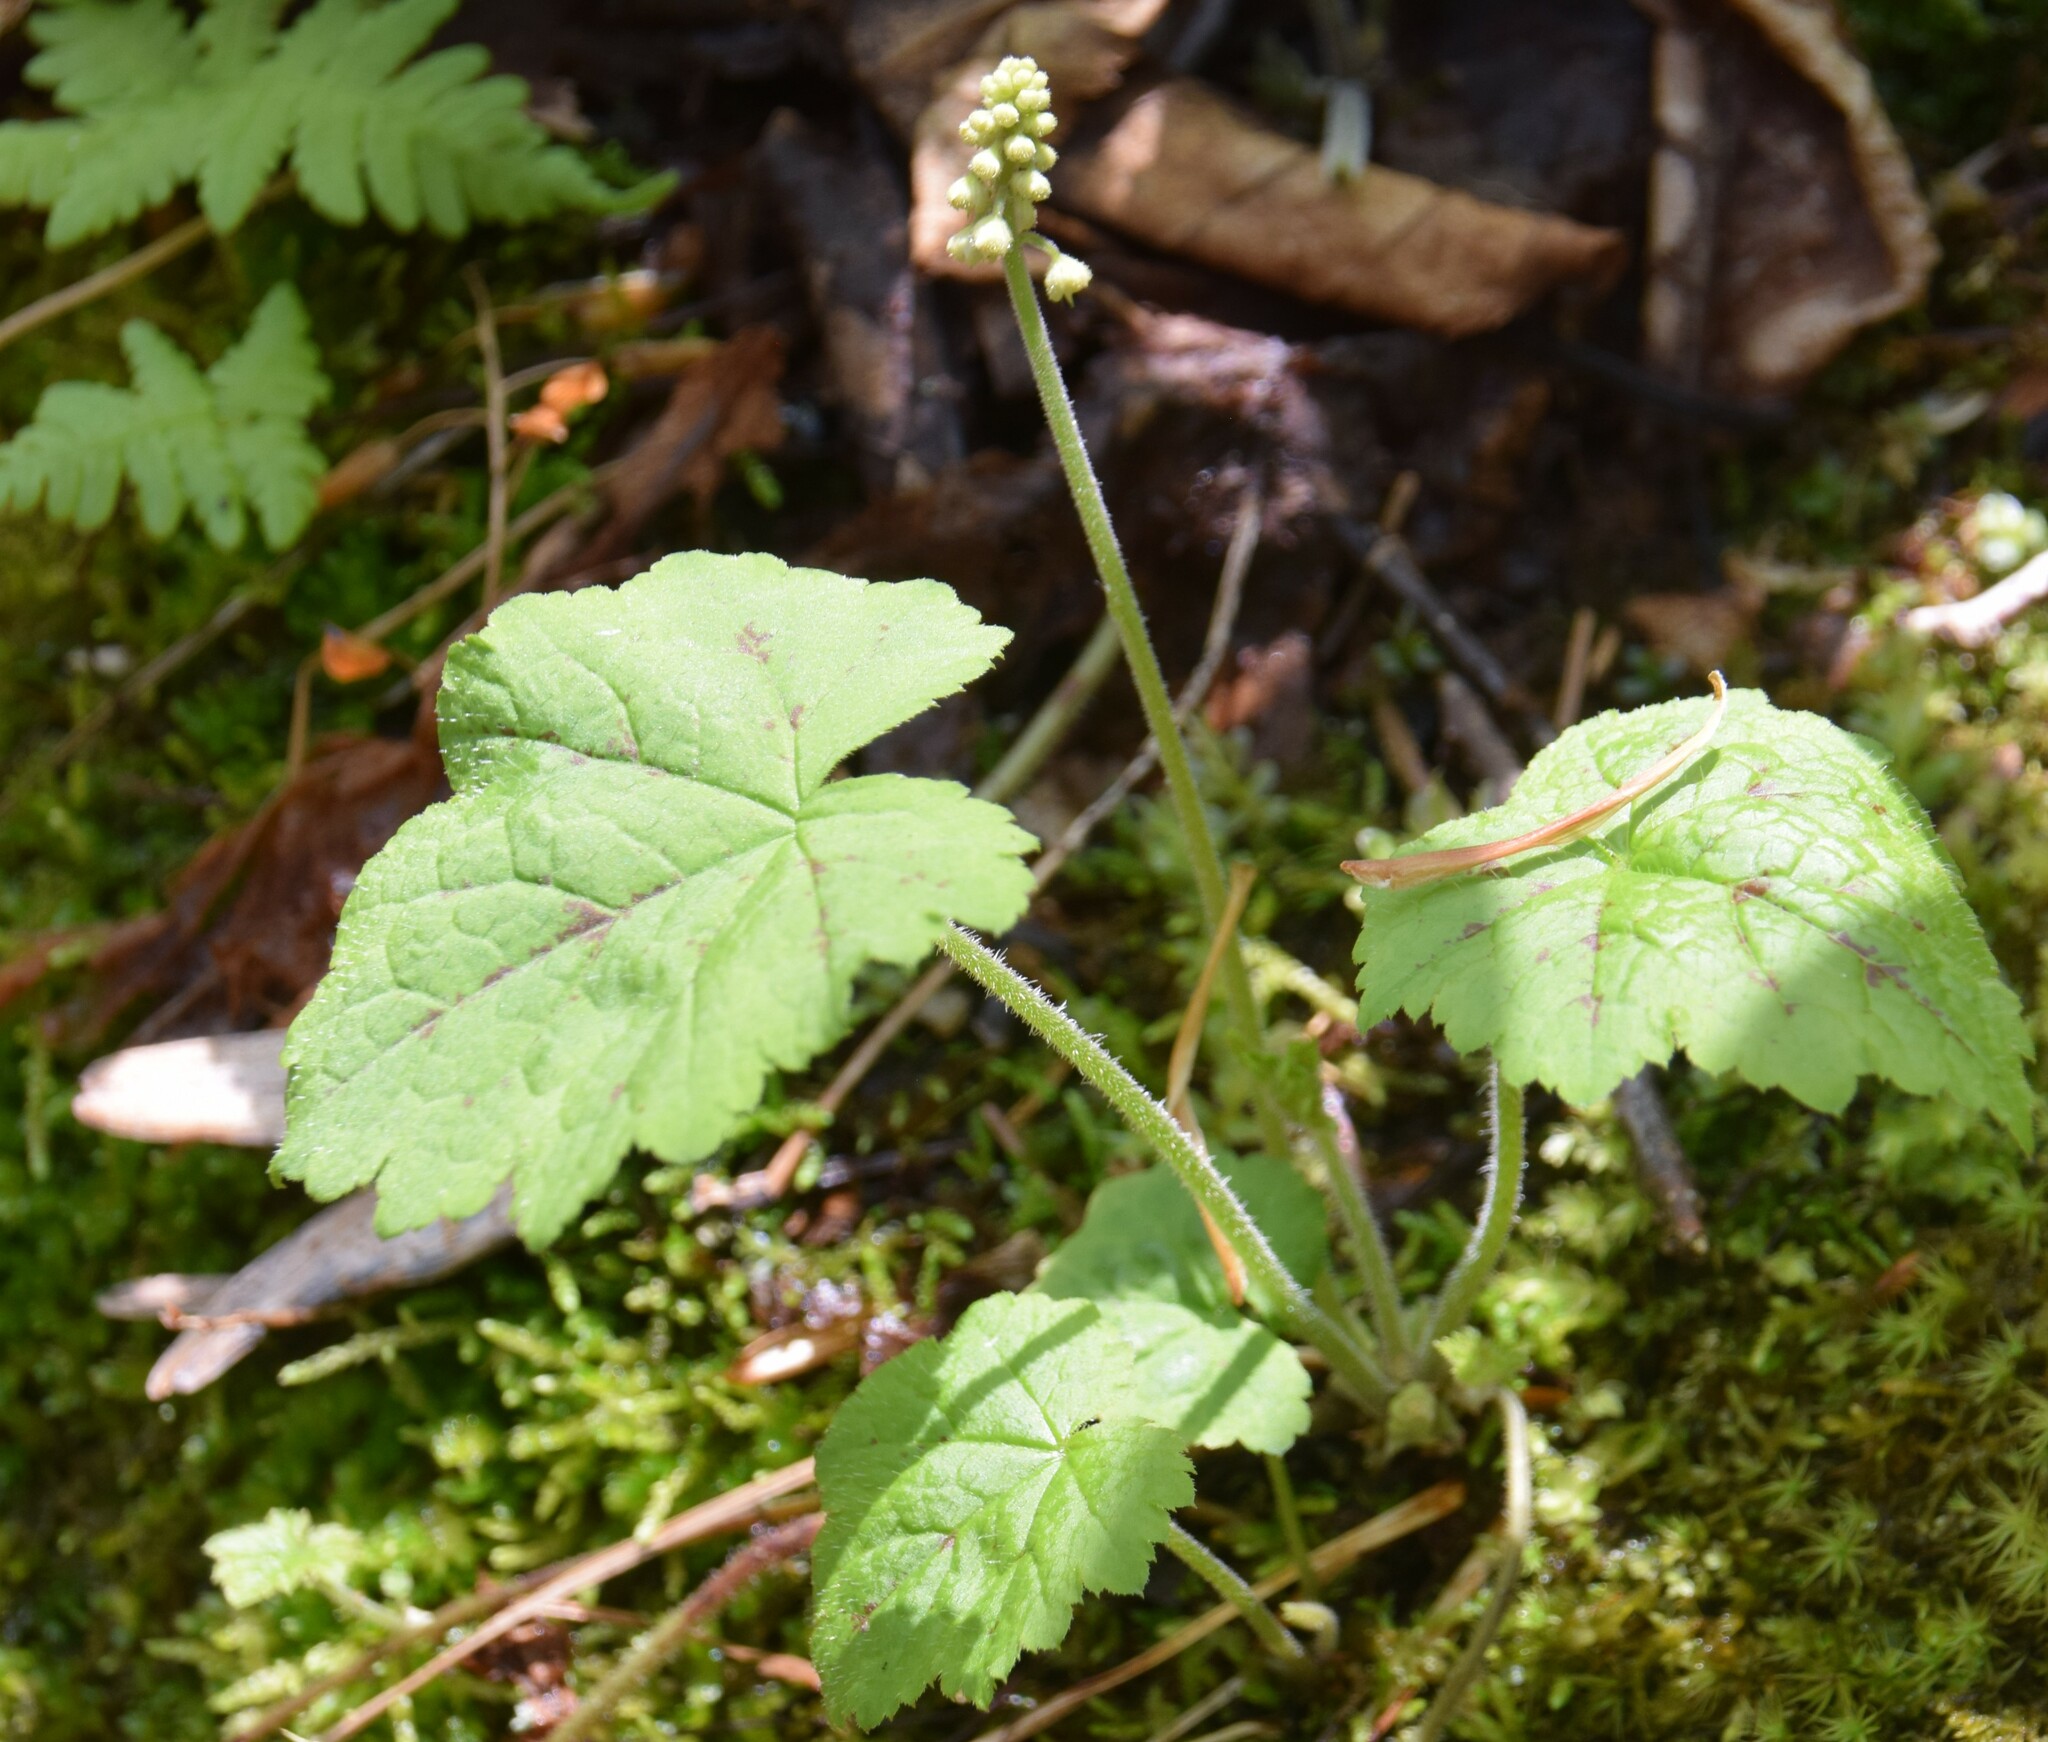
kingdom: Plantae
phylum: Tracheophyta
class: Magnoliopsida
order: Saxifragales
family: Saxifragaceae
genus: Tiarella
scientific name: Tiarella stolonifera
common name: Stoloniferous foamflower
